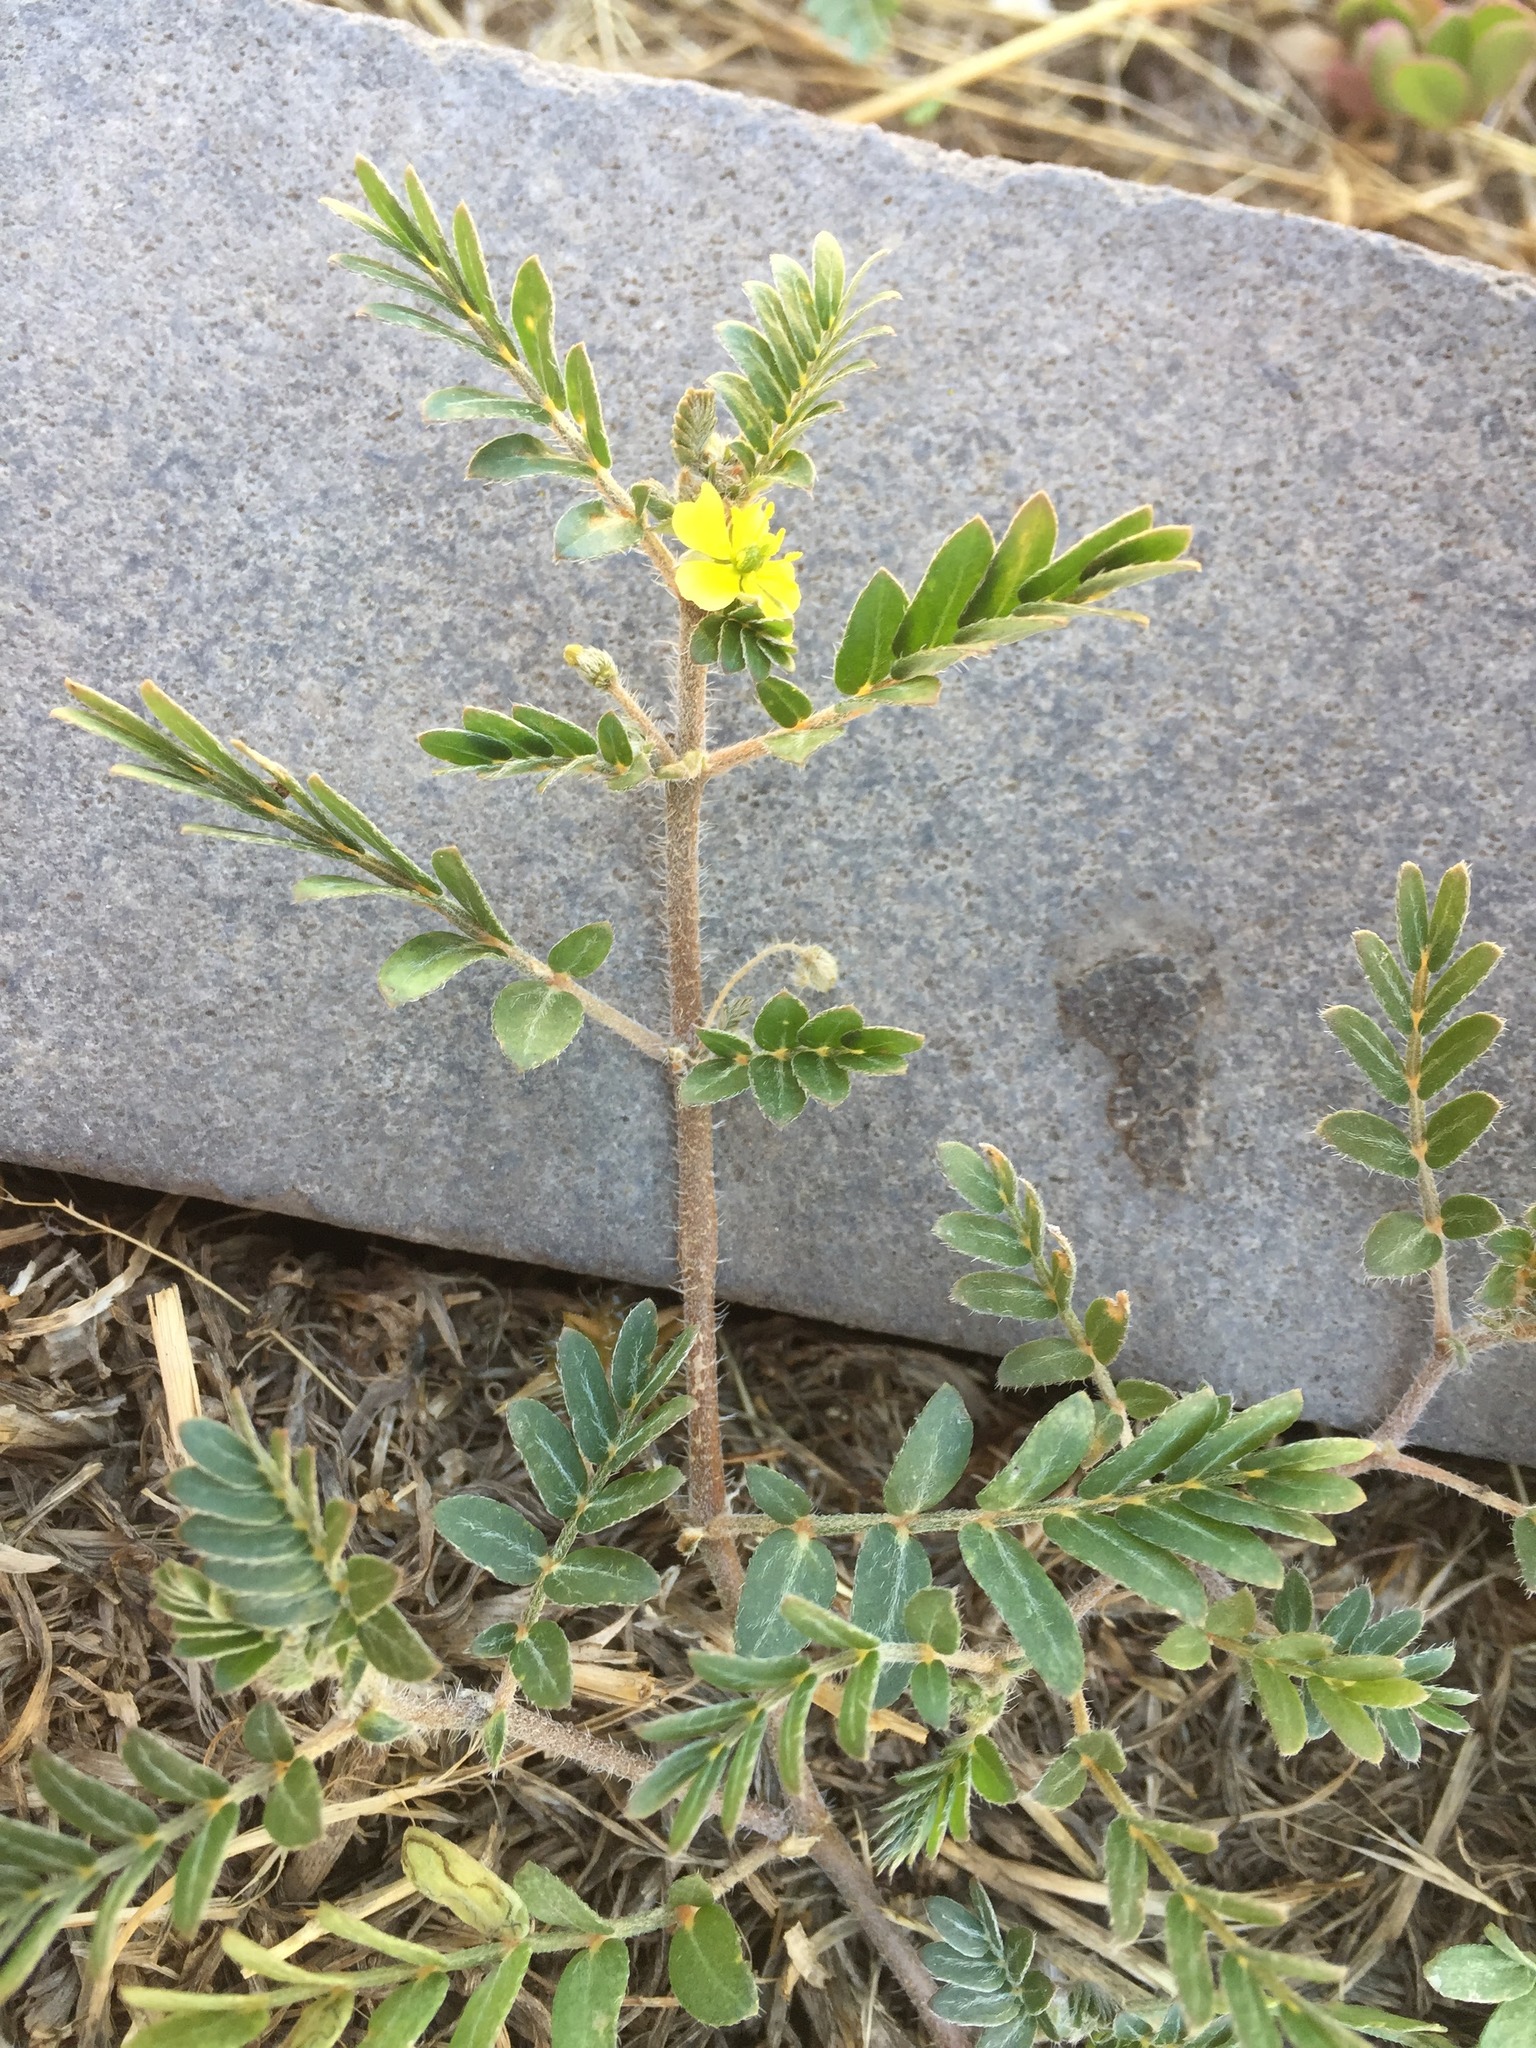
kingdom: Plantae
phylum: Tracheophyta
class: Magnoliopsida
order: Zygophyllales
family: Zygophyllaceae
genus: Tribulus
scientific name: Tribulus terrestris
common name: Puncturevine
